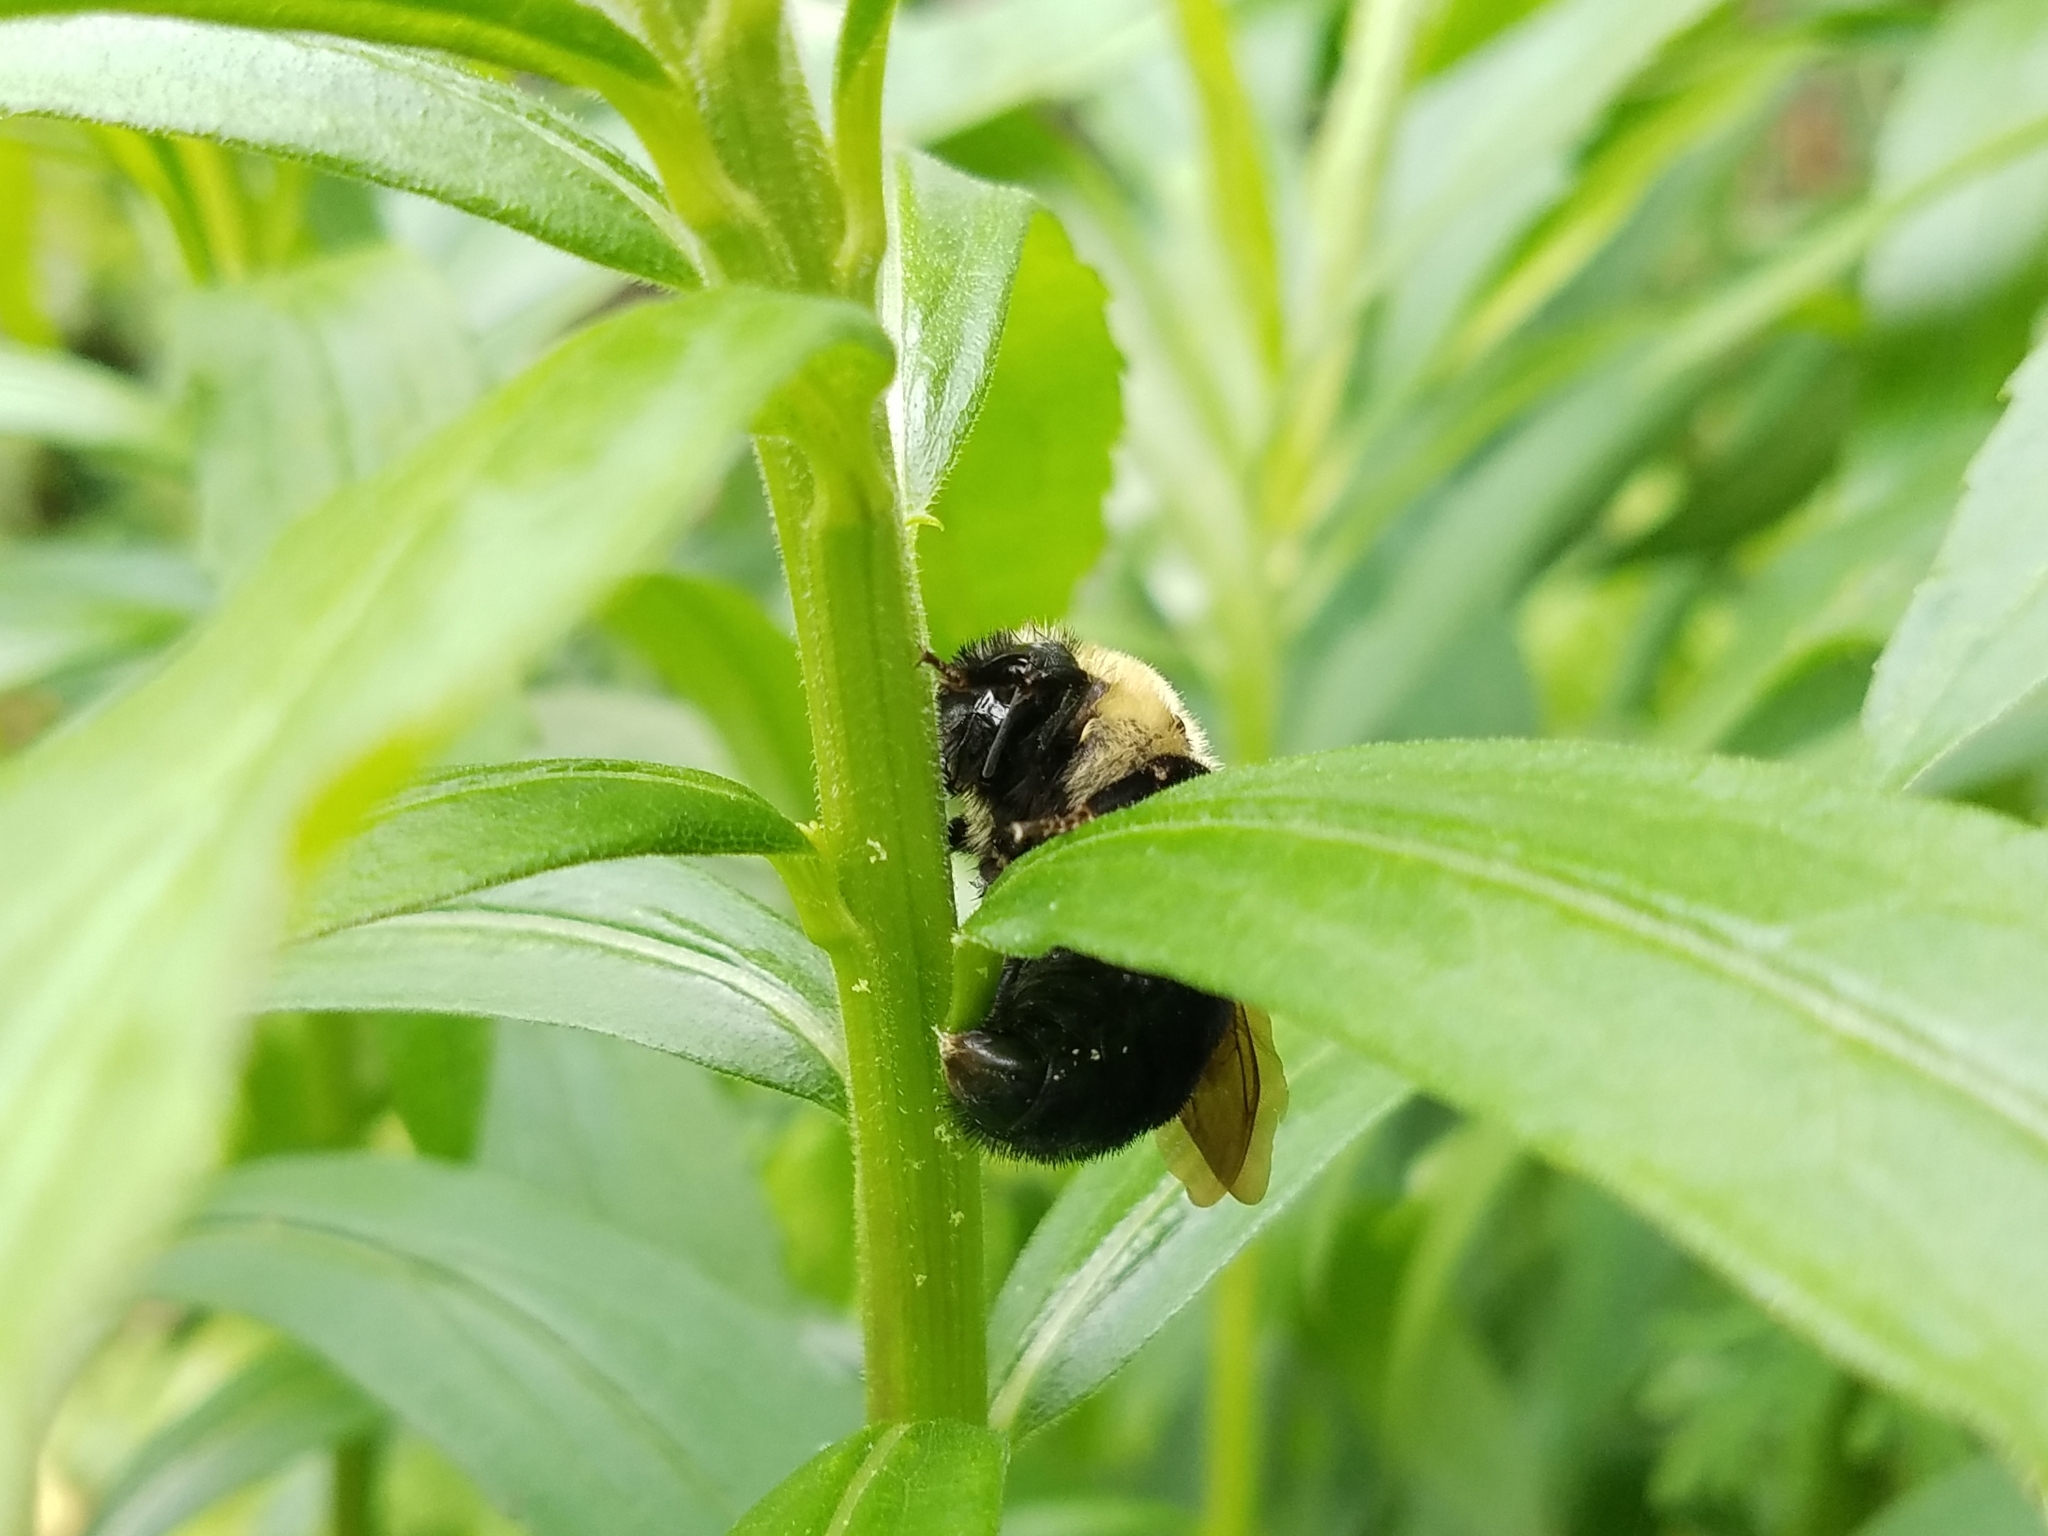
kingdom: Animalia
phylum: Arthropoda
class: Insecta
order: Hymenoptera
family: Apidae
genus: Bombus
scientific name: Bombus citrinus
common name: Lemon cuckoo bumble bee
